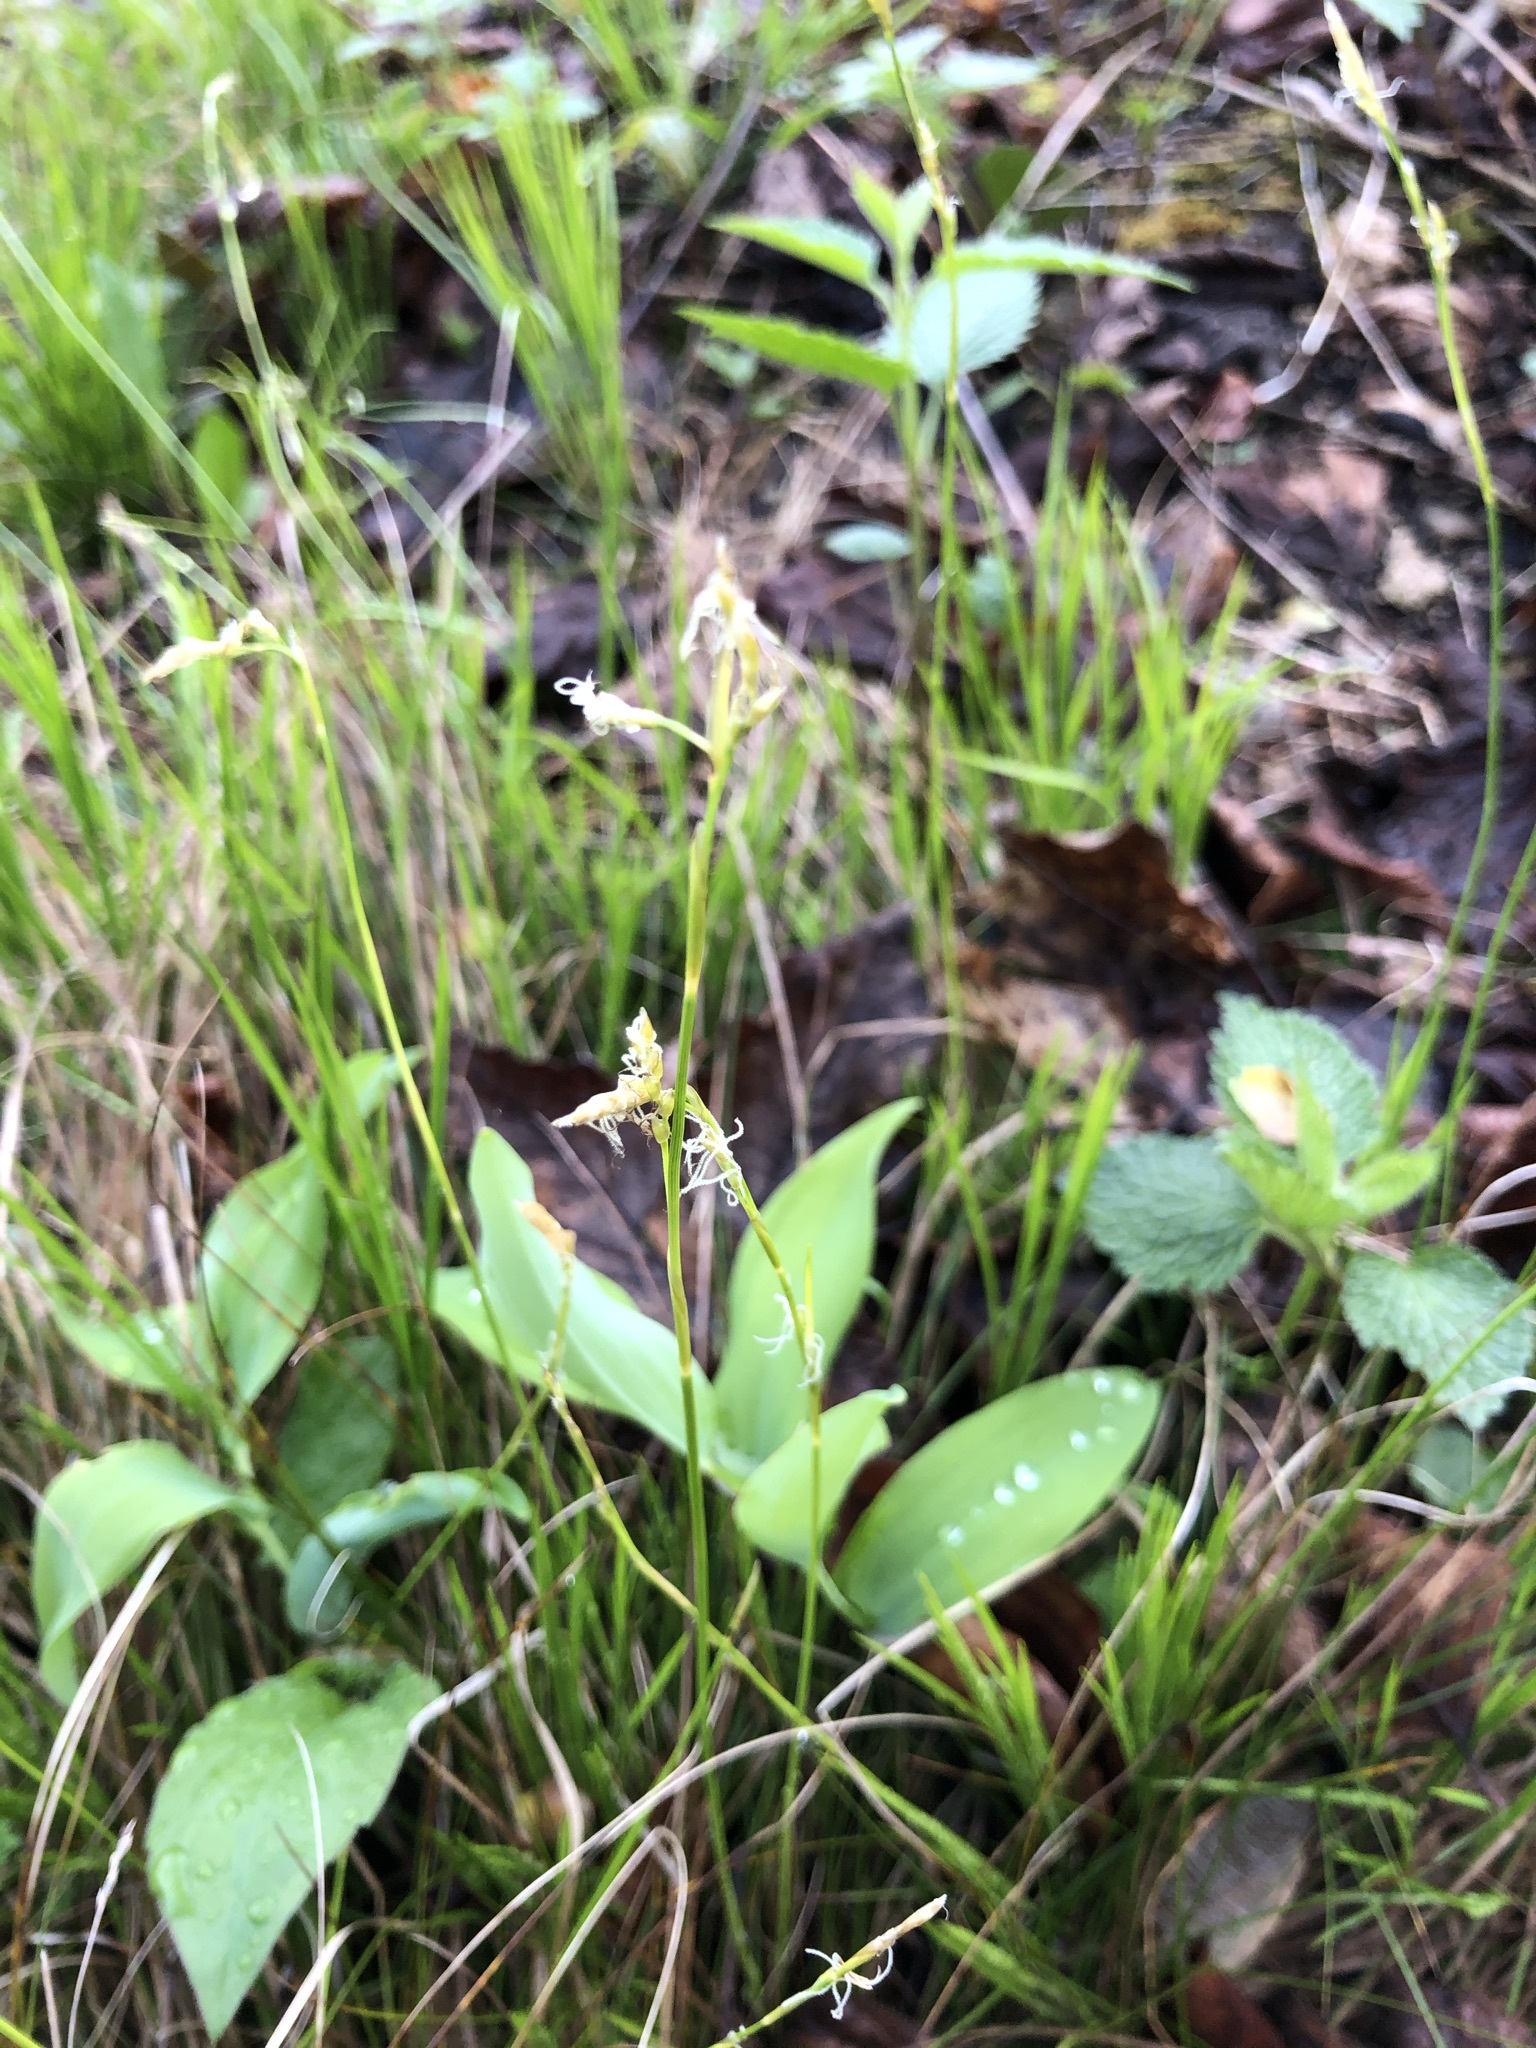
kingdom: Plantae
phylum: Tracheophyta
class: Liliopsida
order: Poales
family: Cyperaceae
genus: Carex
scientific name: Carex alba
